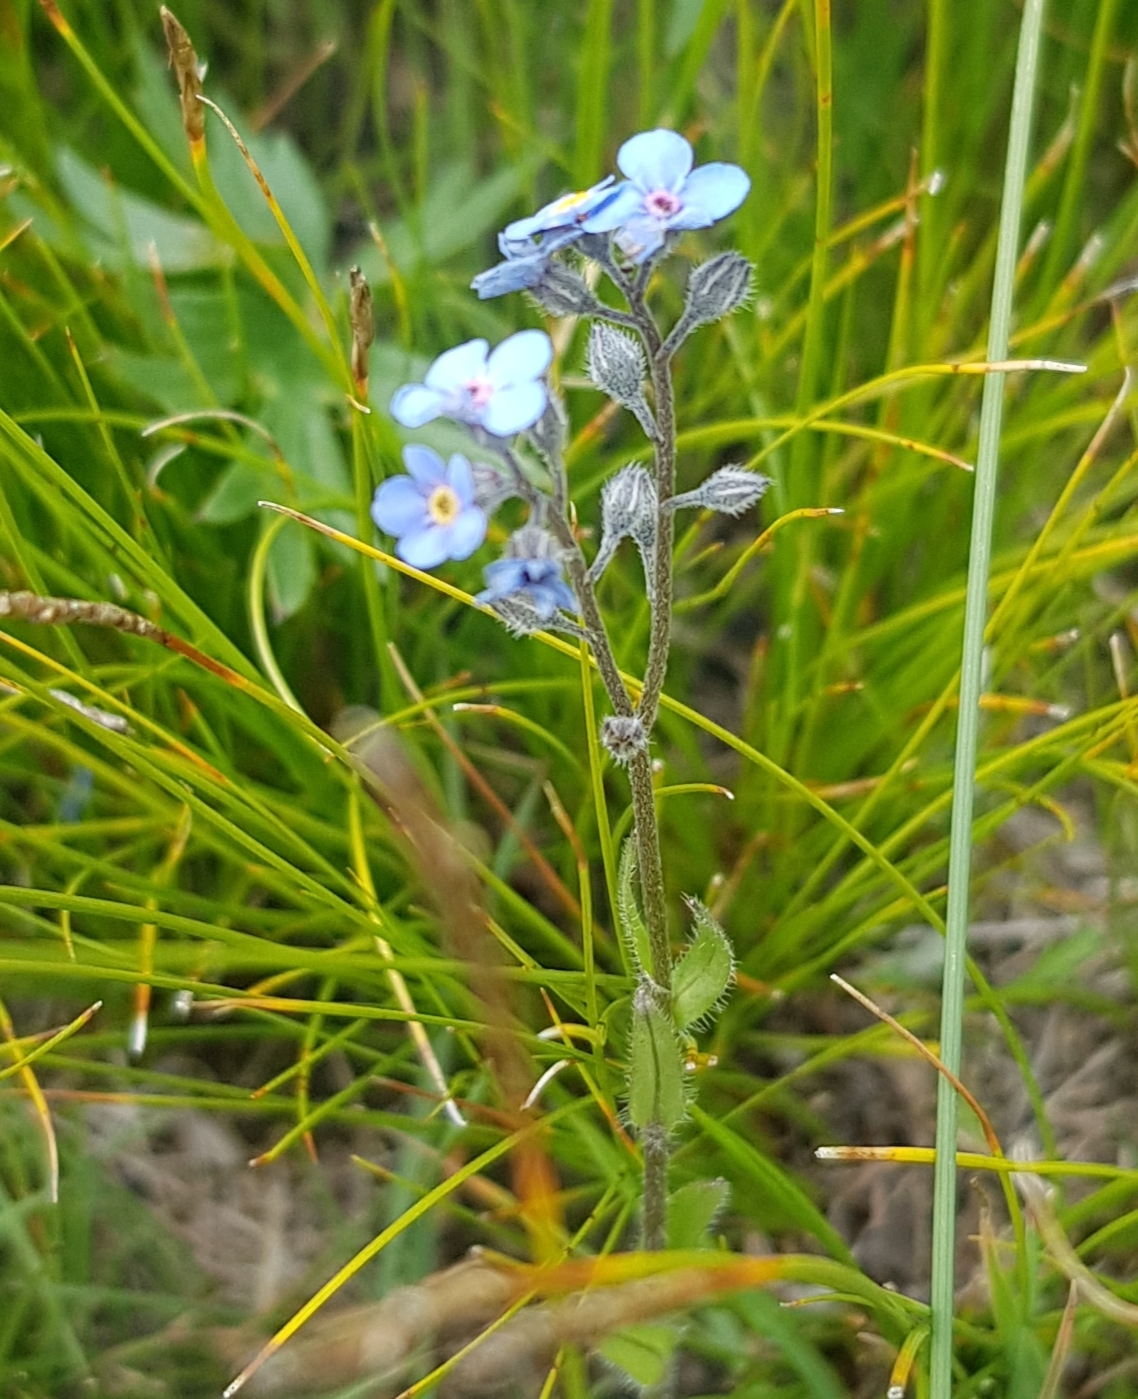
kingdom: Plantae
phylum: Tracheophyta
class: Magnoliopsida
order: Boraginales
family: Boraginaceae
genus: Myosotis
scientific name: Myosotis alpestris
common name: Alpine forget-me-not
